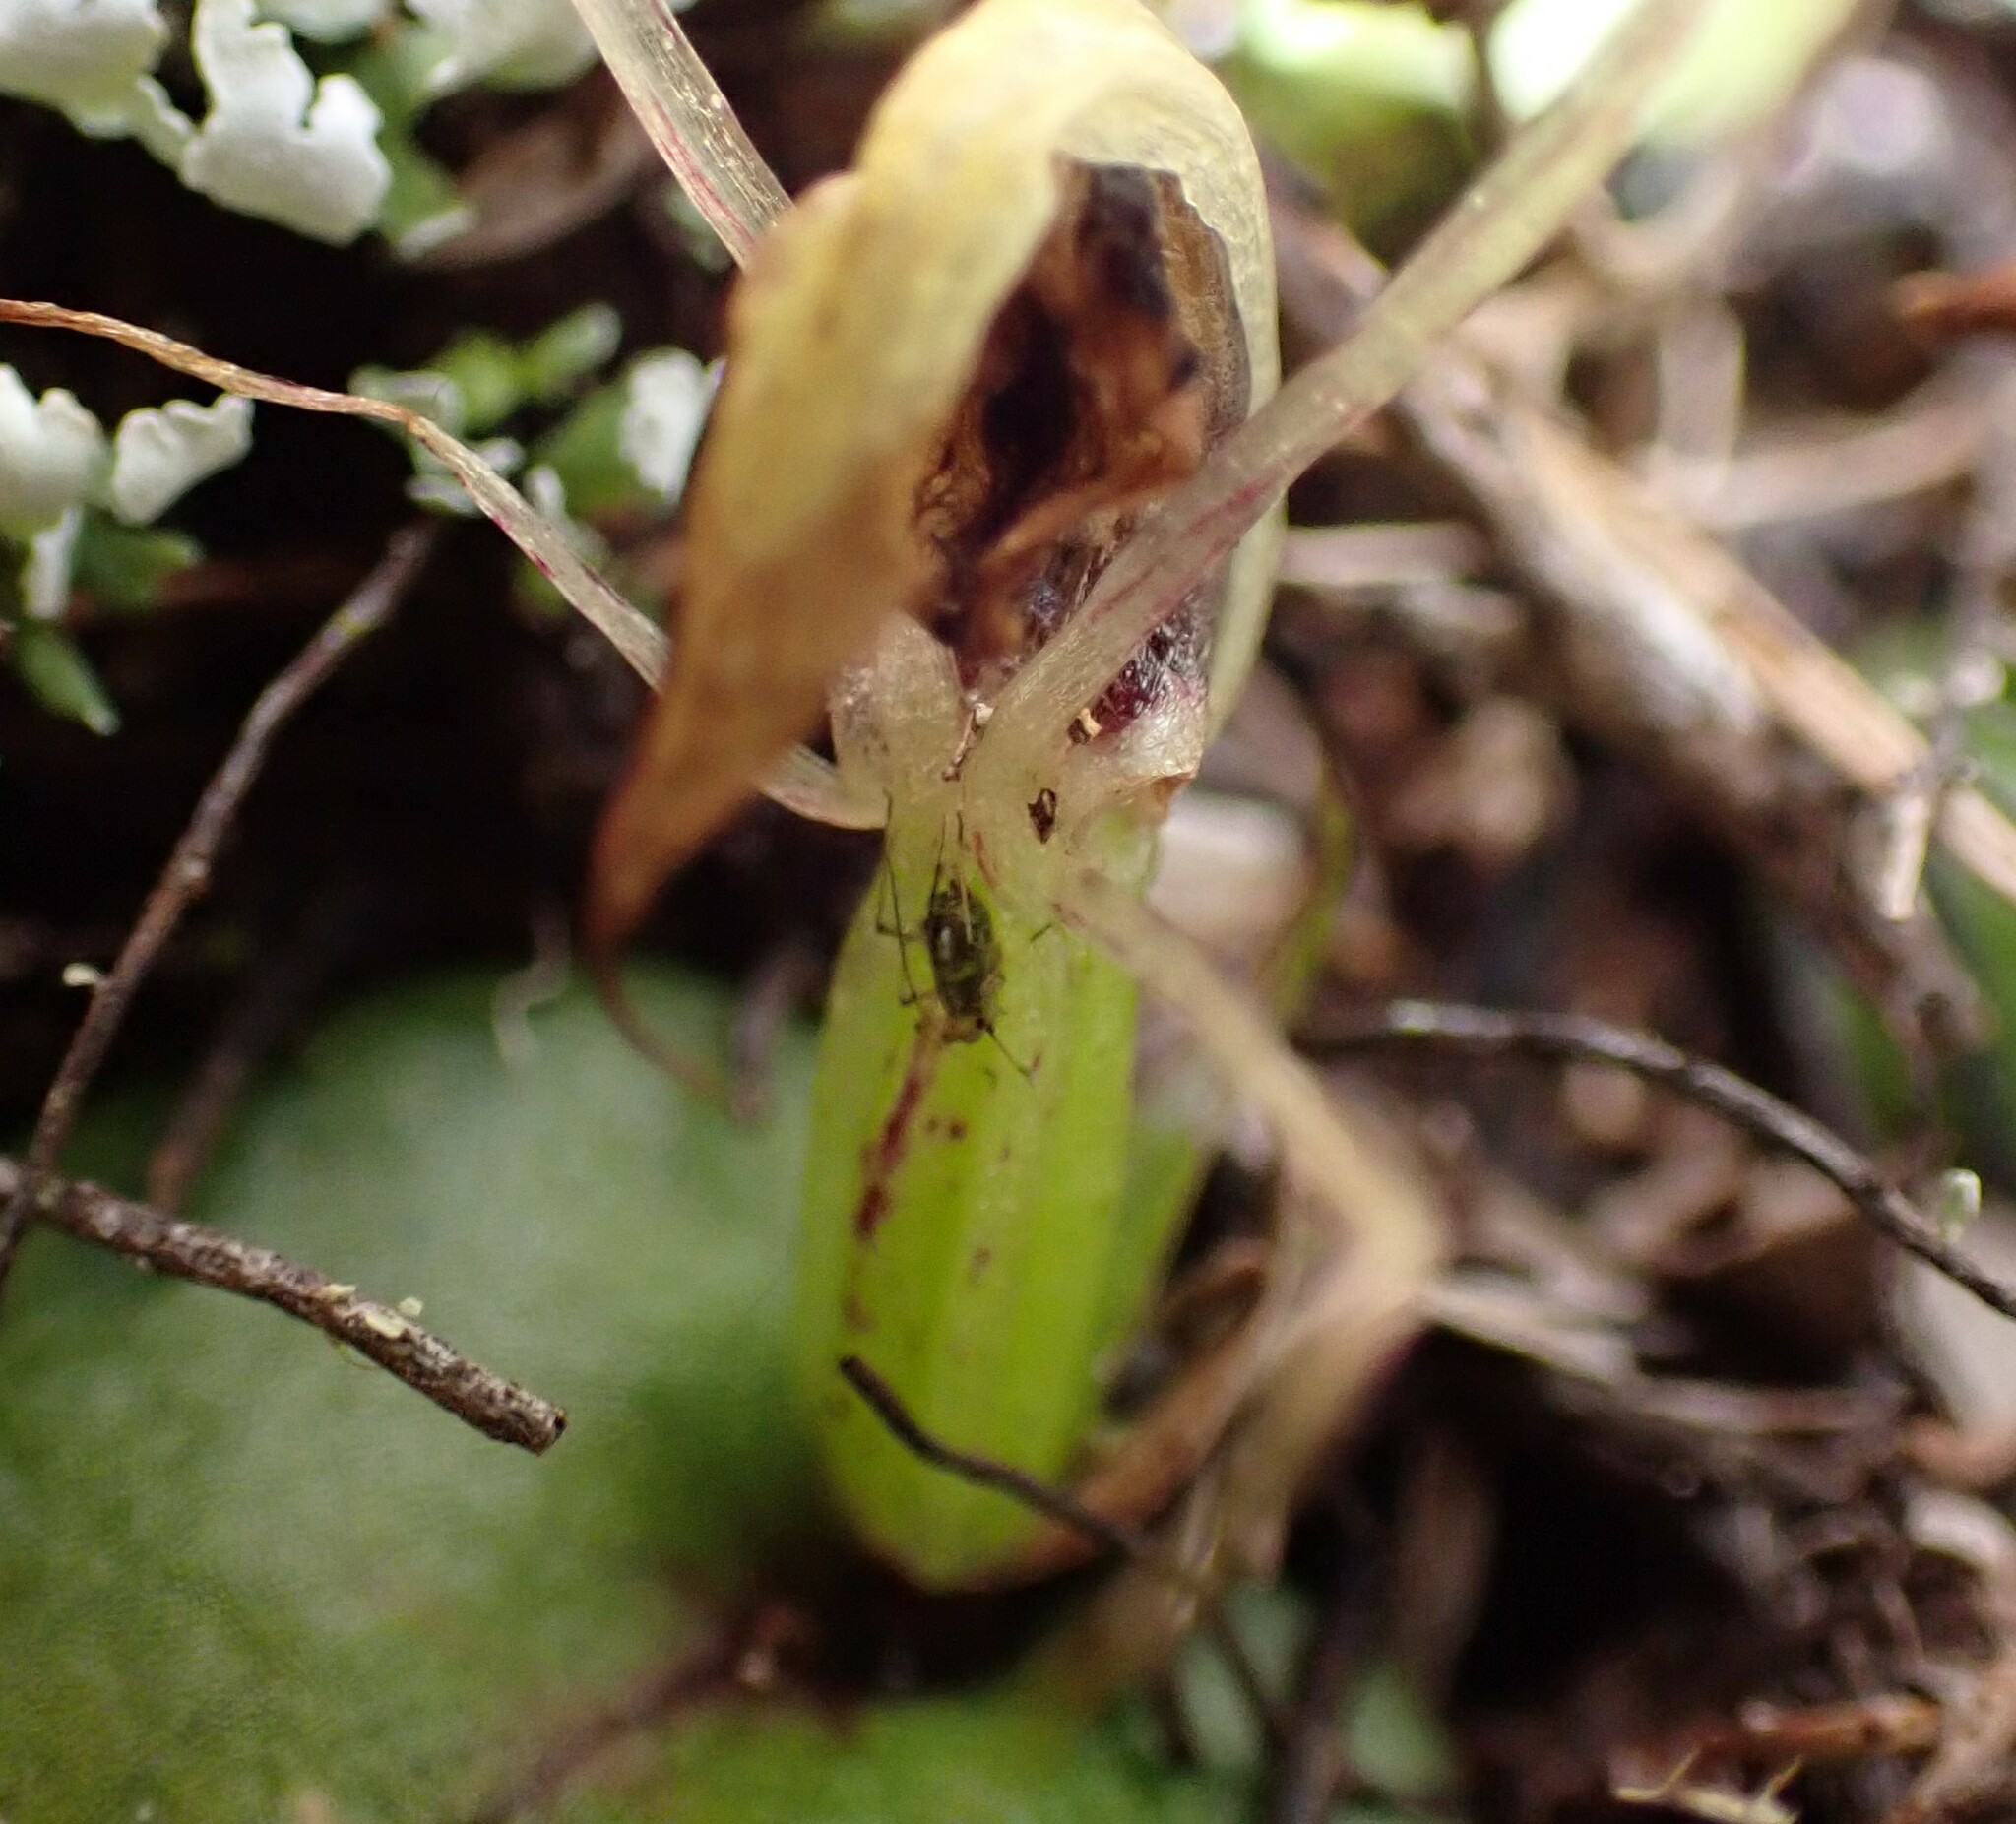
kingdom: Plantae
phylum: Tracheophyta
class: Liliopsida
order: Asparagales
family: Orchidaceae
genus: Corybas
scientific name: Corybas dienemus
